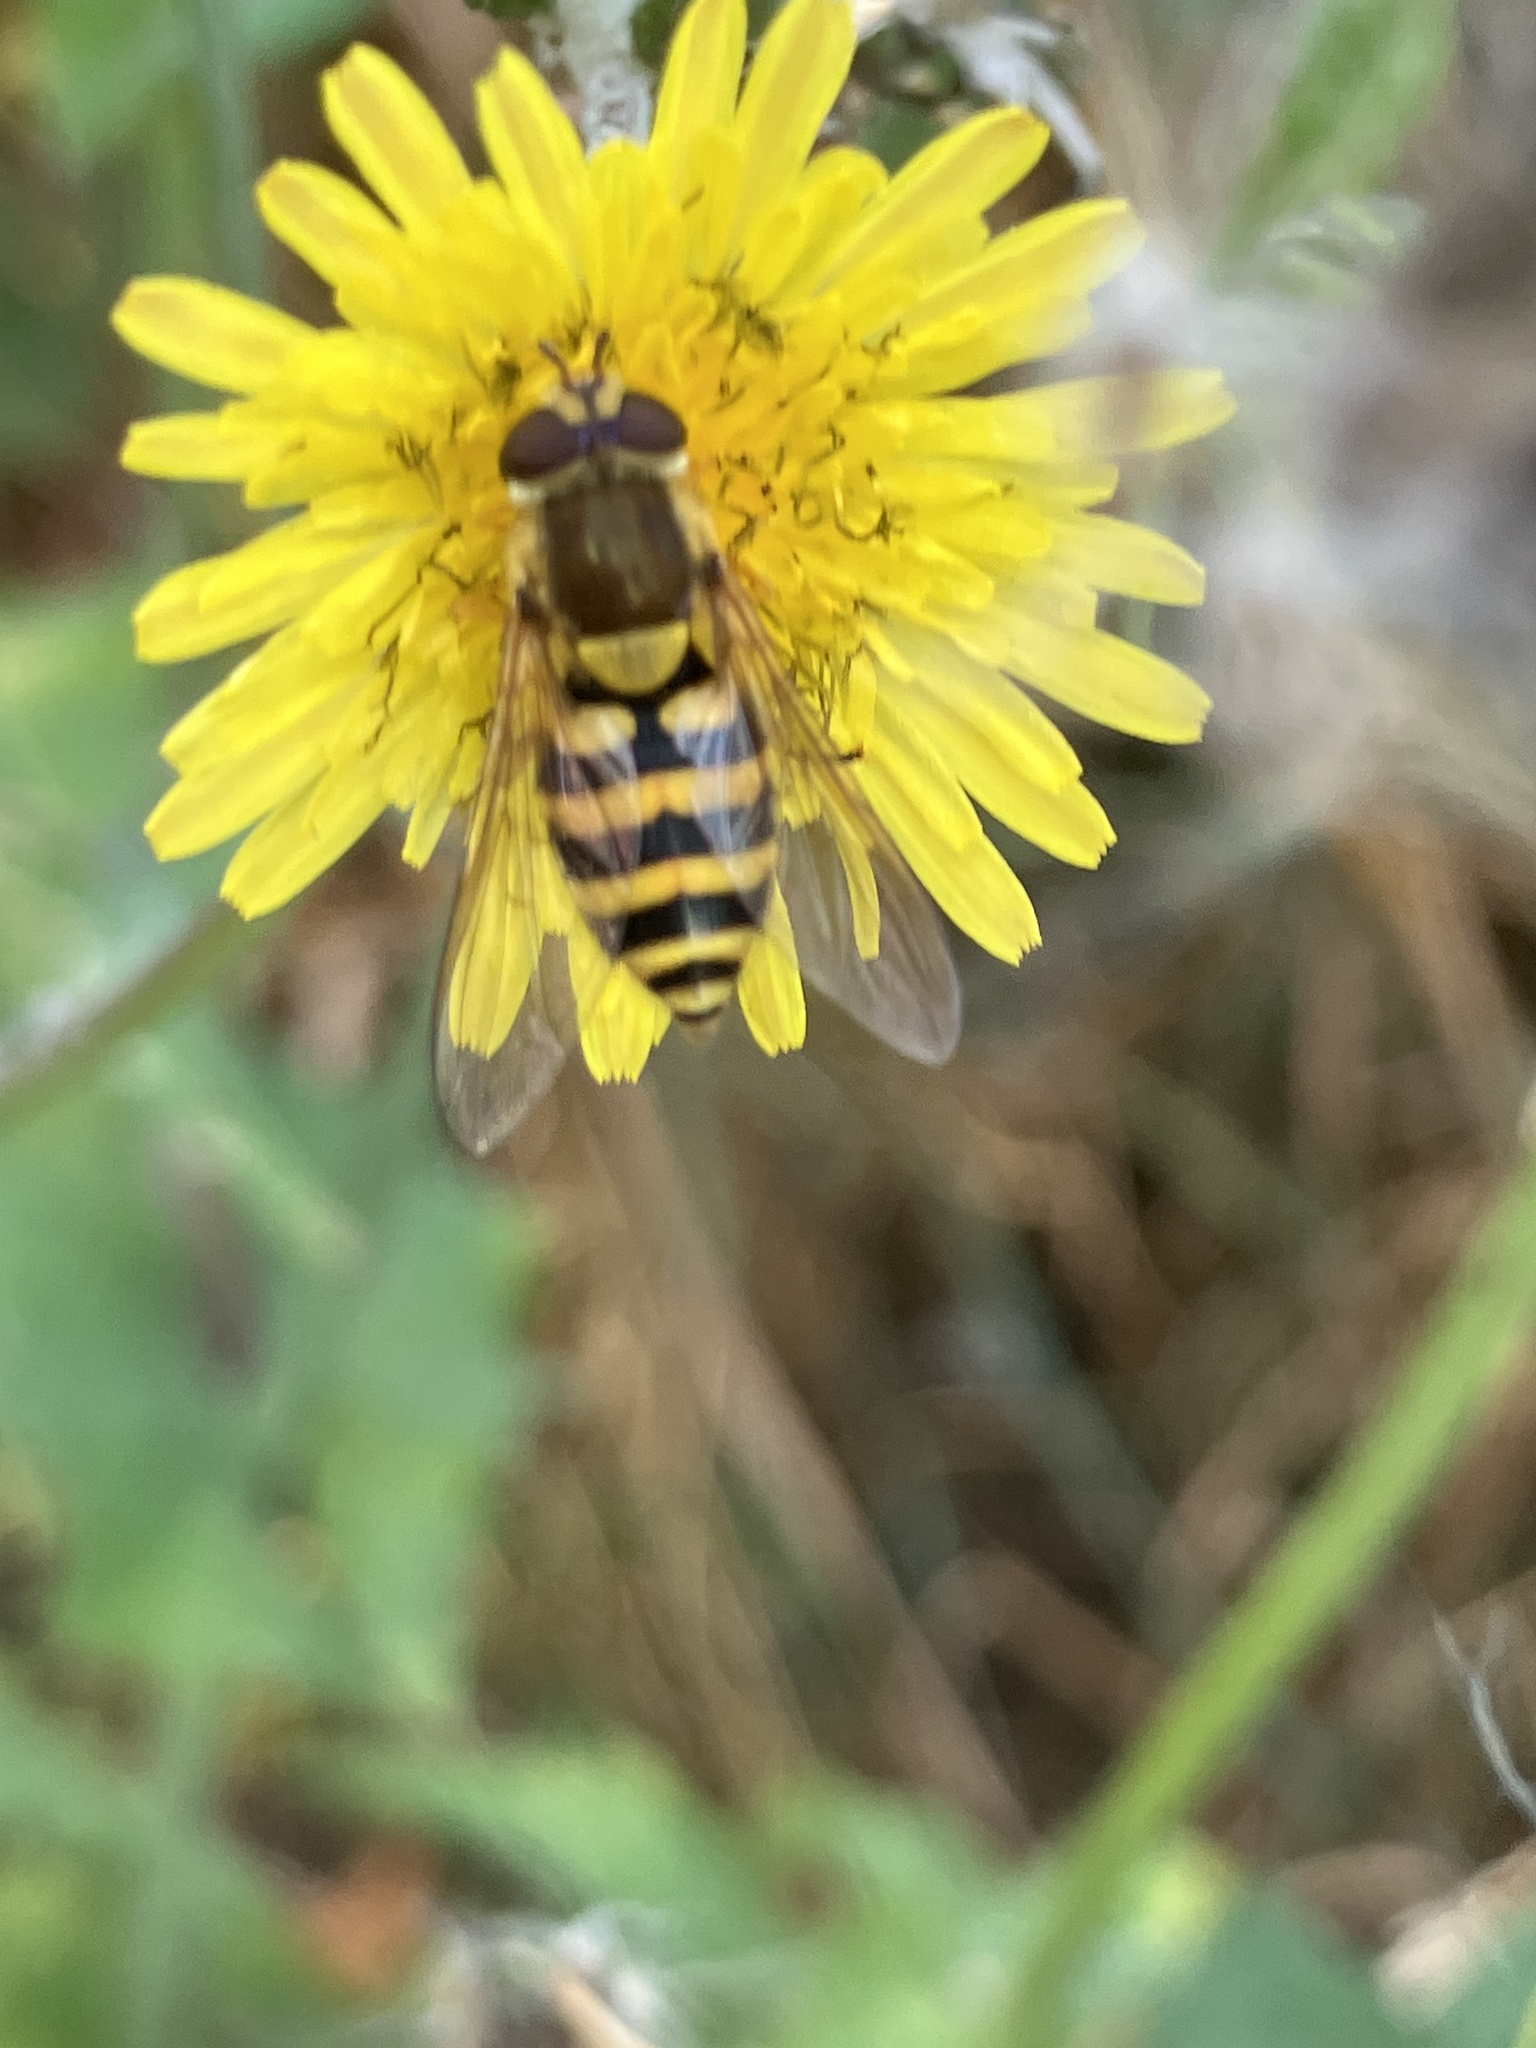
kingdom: Animalia
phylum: Arthropoda
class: Insecta
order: Diptera
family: Syrphidae
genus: Syrphus
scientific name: Syrphus
